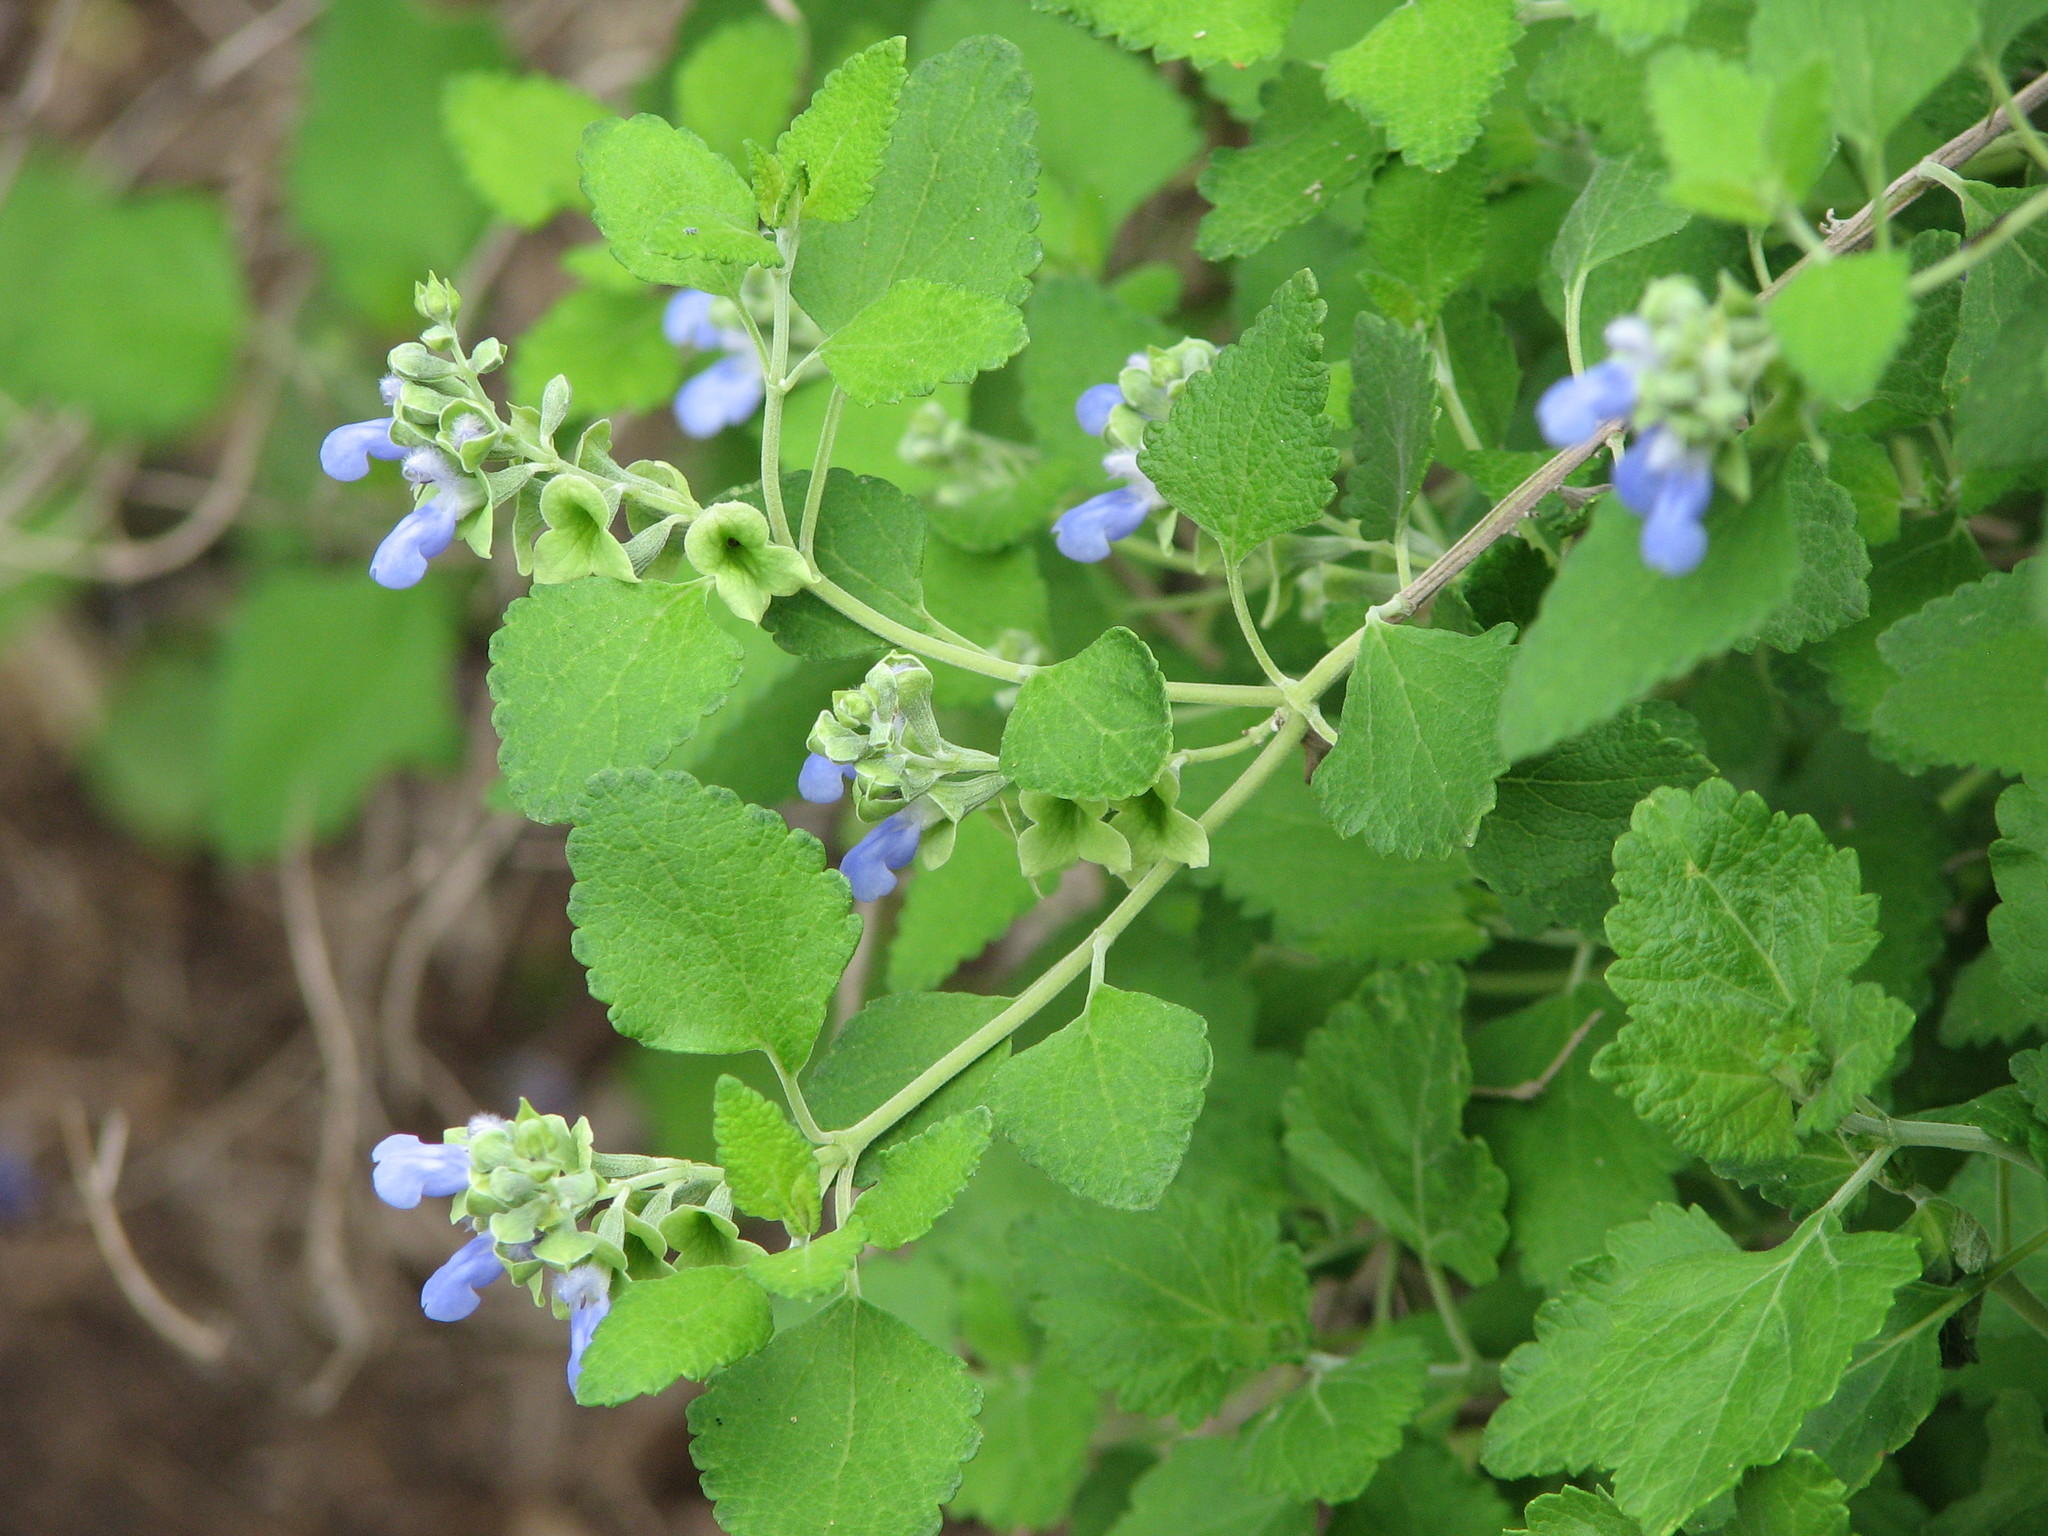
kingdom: Plantae
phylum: Tracheophyta
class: Magnoliopsida
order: Lamiales
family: Lamiaceae
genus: Salvia
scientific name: Salvia ballotiflora
